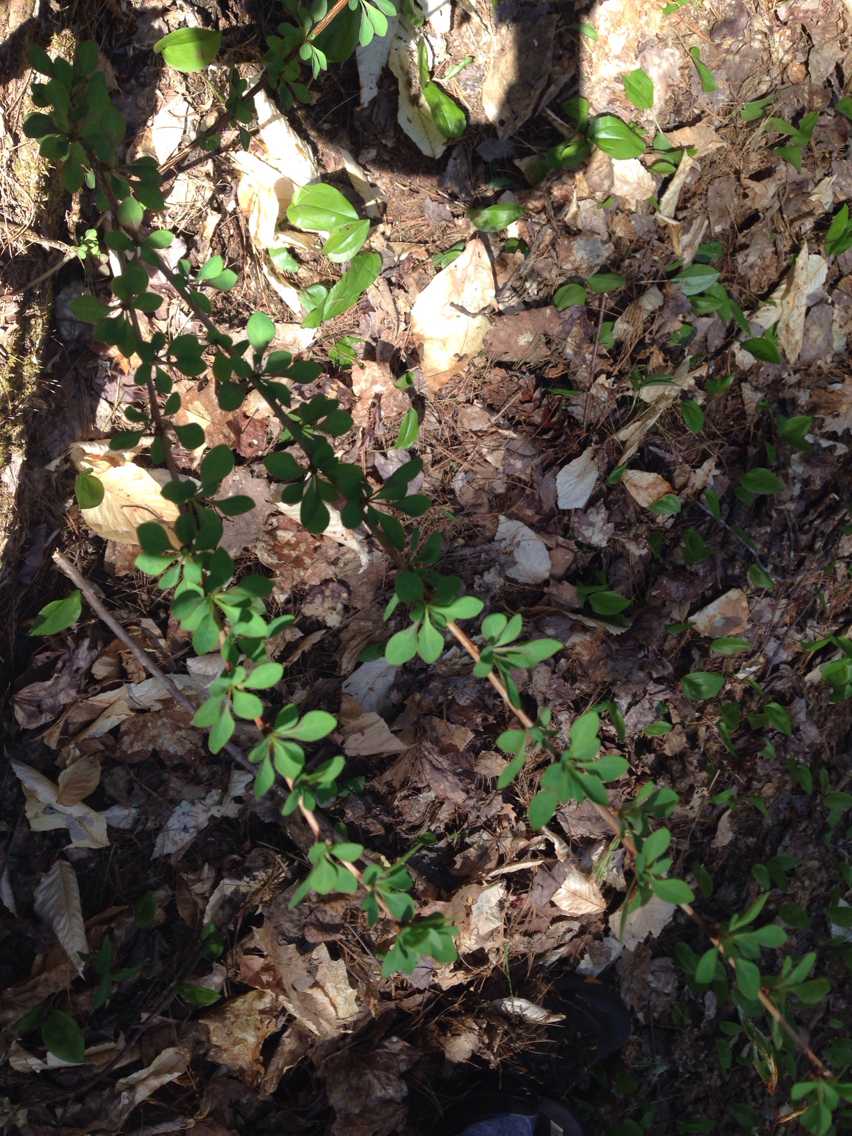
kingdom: Plantae
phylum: Tracheophyta
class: Magnoliopsida
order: Ranunculales
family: Berberidaceae
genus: Berberis
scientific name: Berberis thunbergii
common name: Japanese barberry
